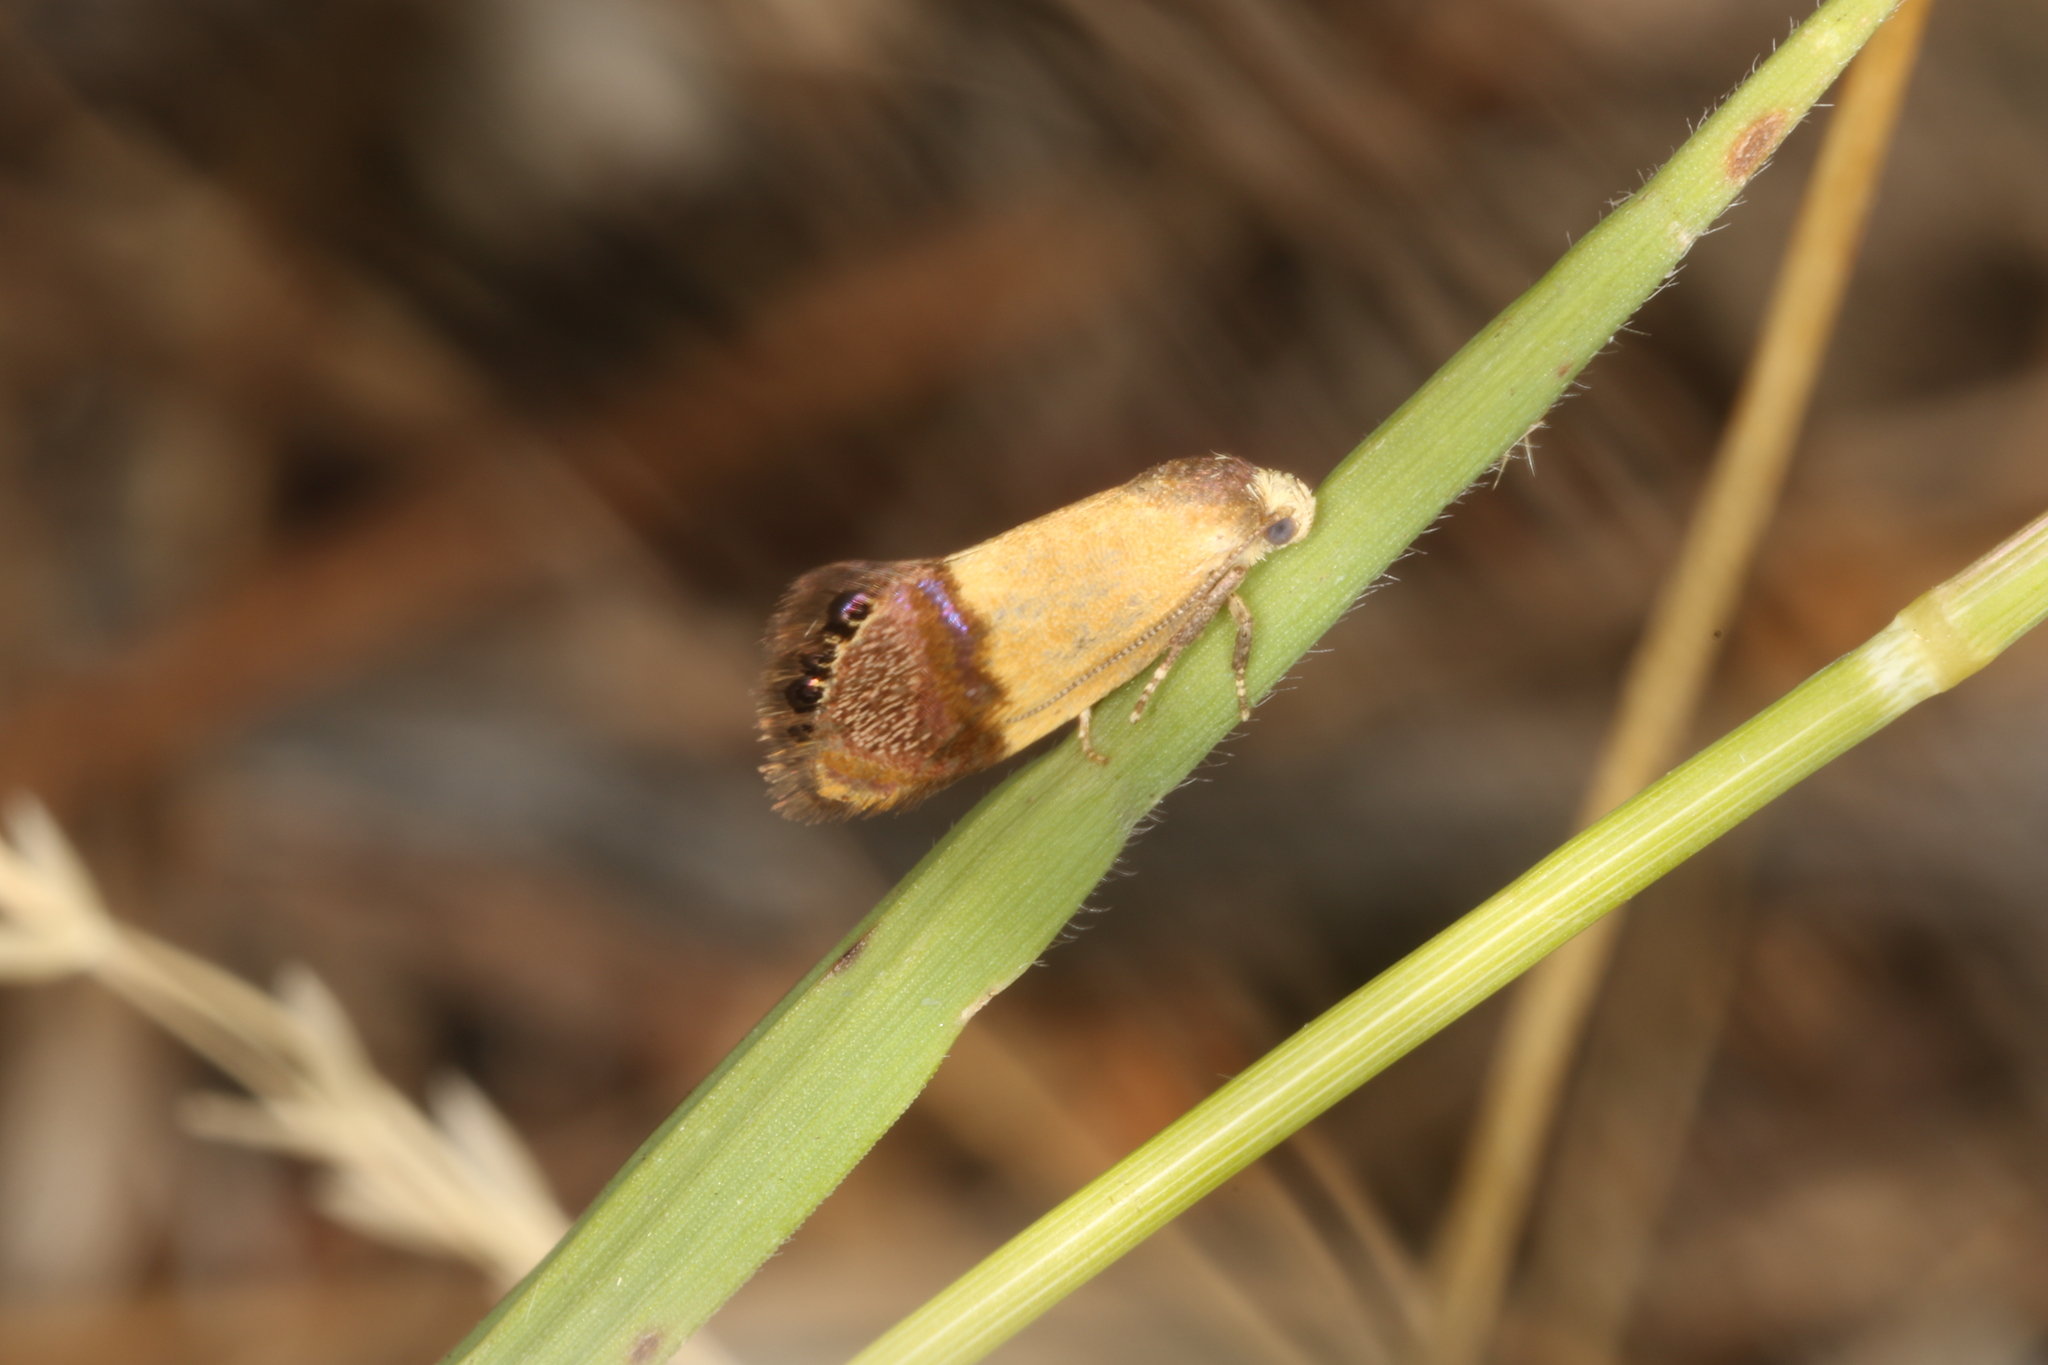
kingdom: Animalia
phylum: Arthropoda
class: Insecta
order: Lepidoptera
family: Depressariidae
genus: Eupselia
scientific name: Eupselia satrapella
